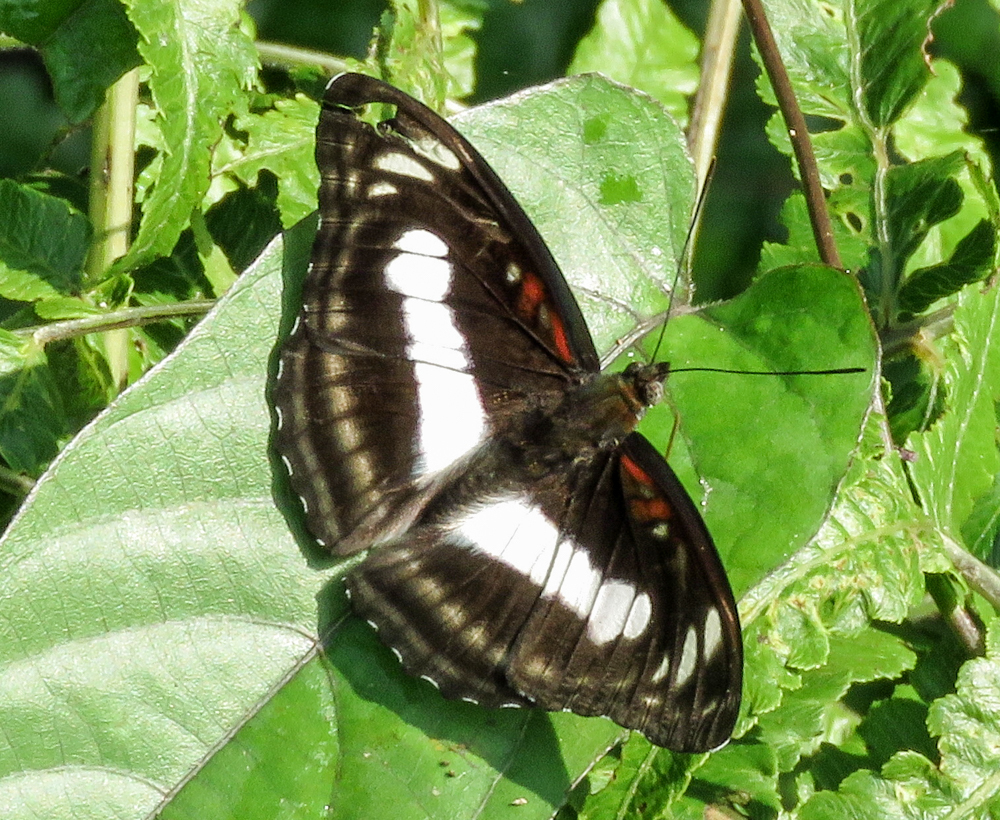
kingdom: Animalia
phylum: Arthropoda
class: Insecta
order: Lepidoptera
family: Nymphalidae
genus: Parathyma
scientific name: Parathyma selenophora
